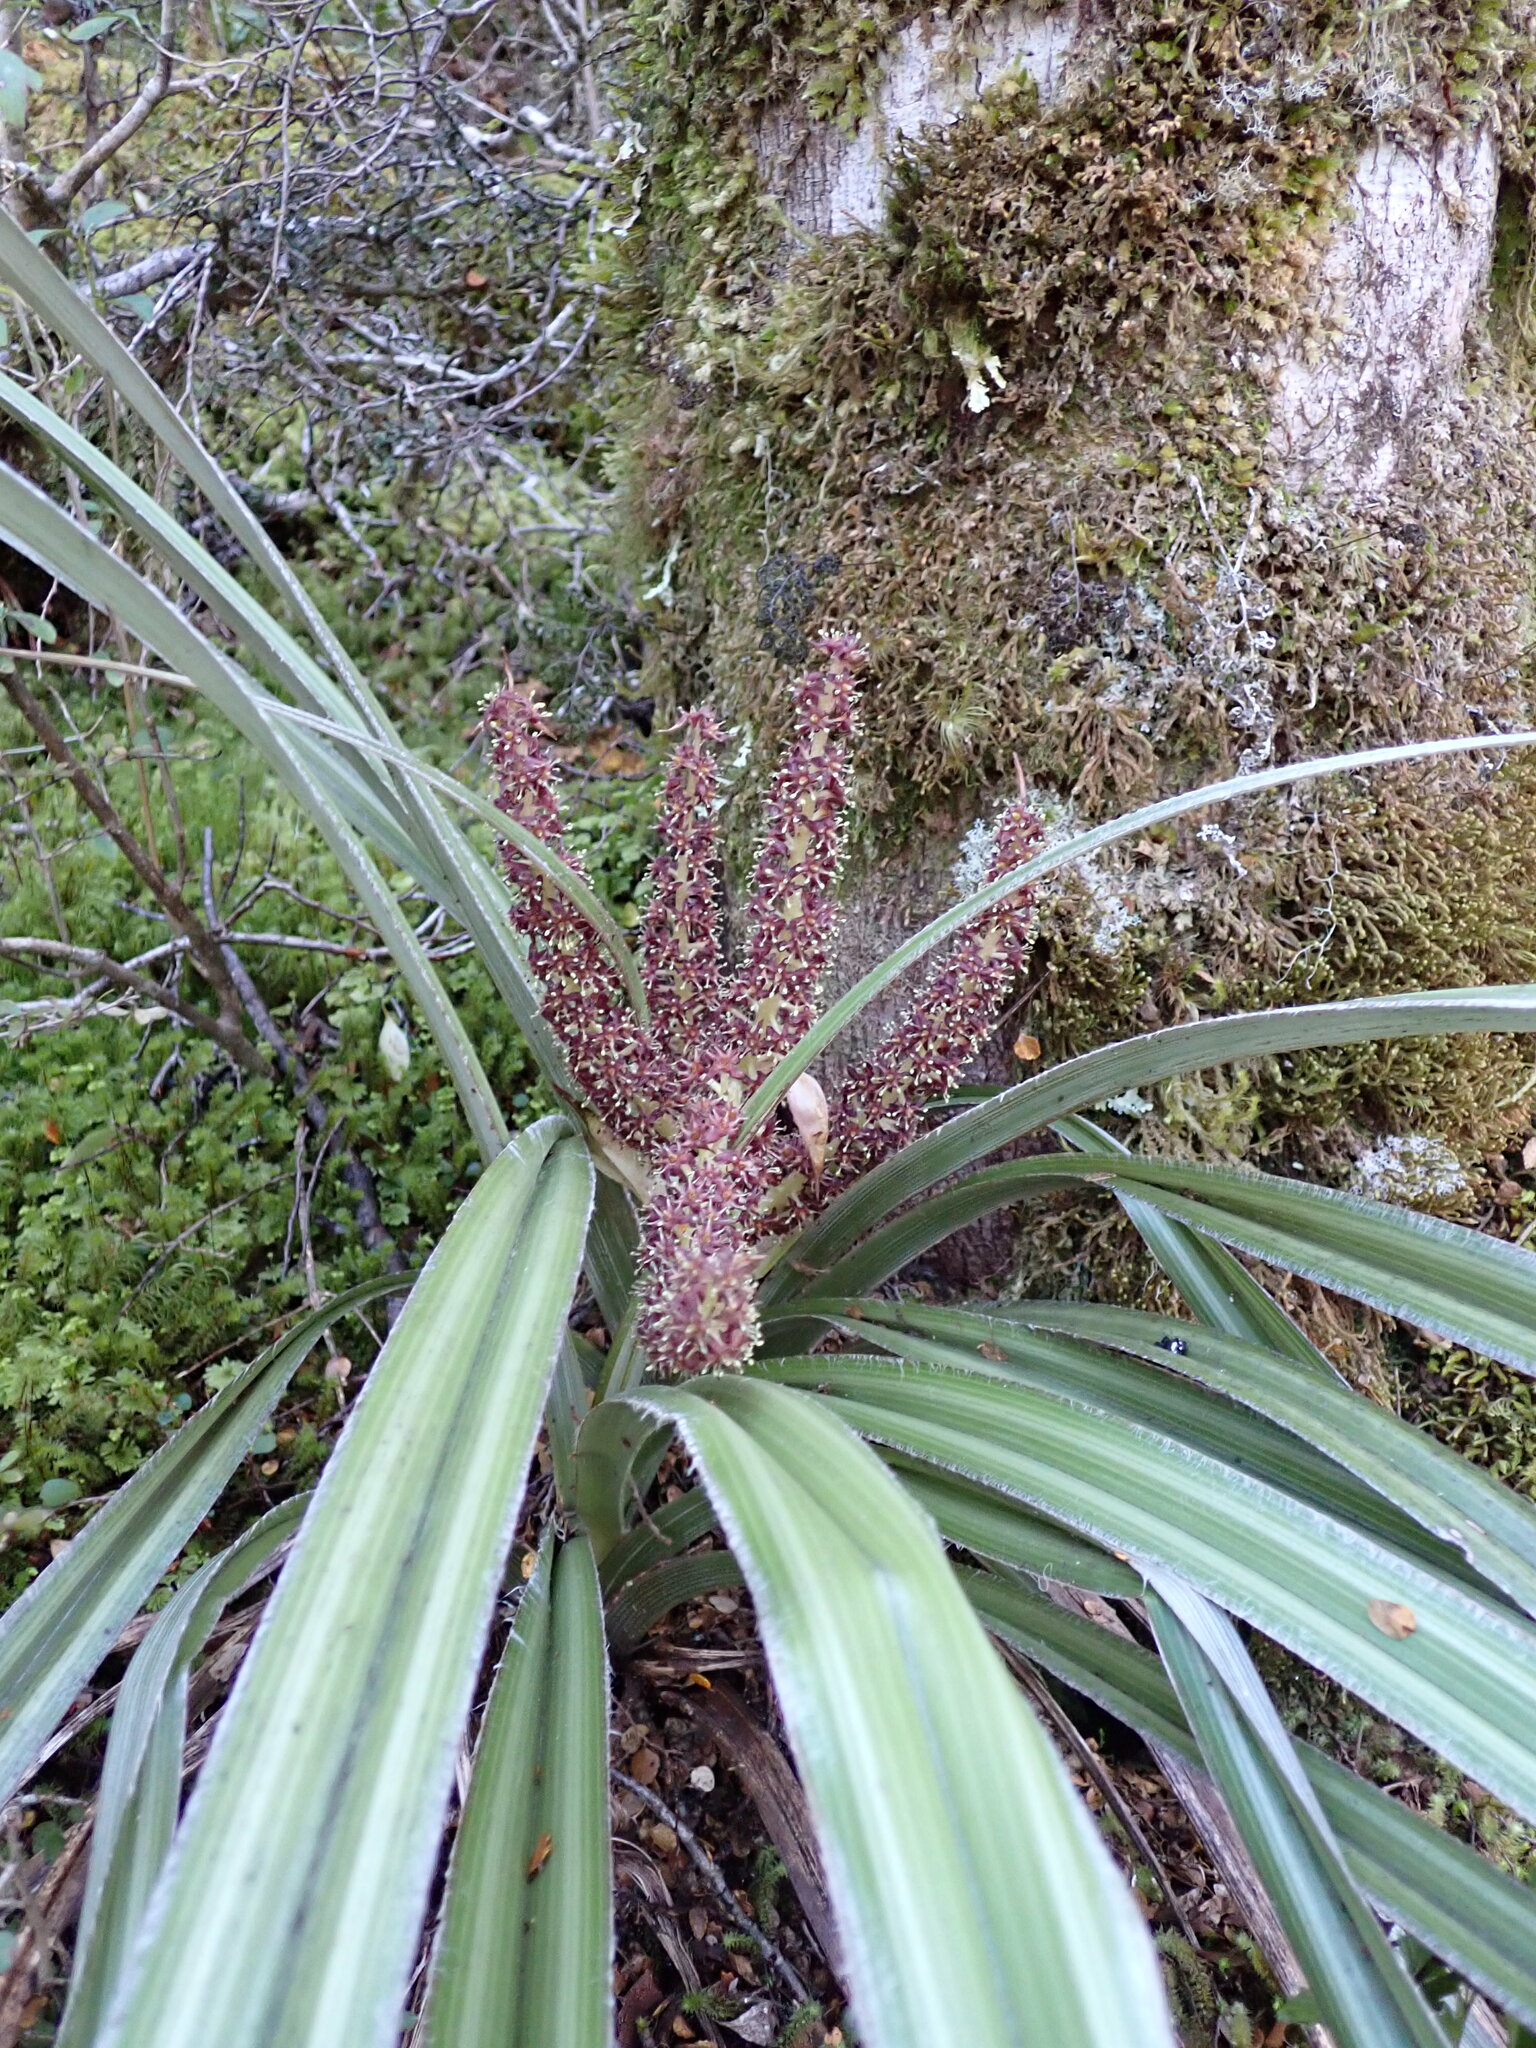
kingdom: Plantae
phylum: Tracheophyta
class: Liliopsida
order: Asparagales
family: Asteliaceae
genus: Astelia
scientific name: Astelia nervosa
